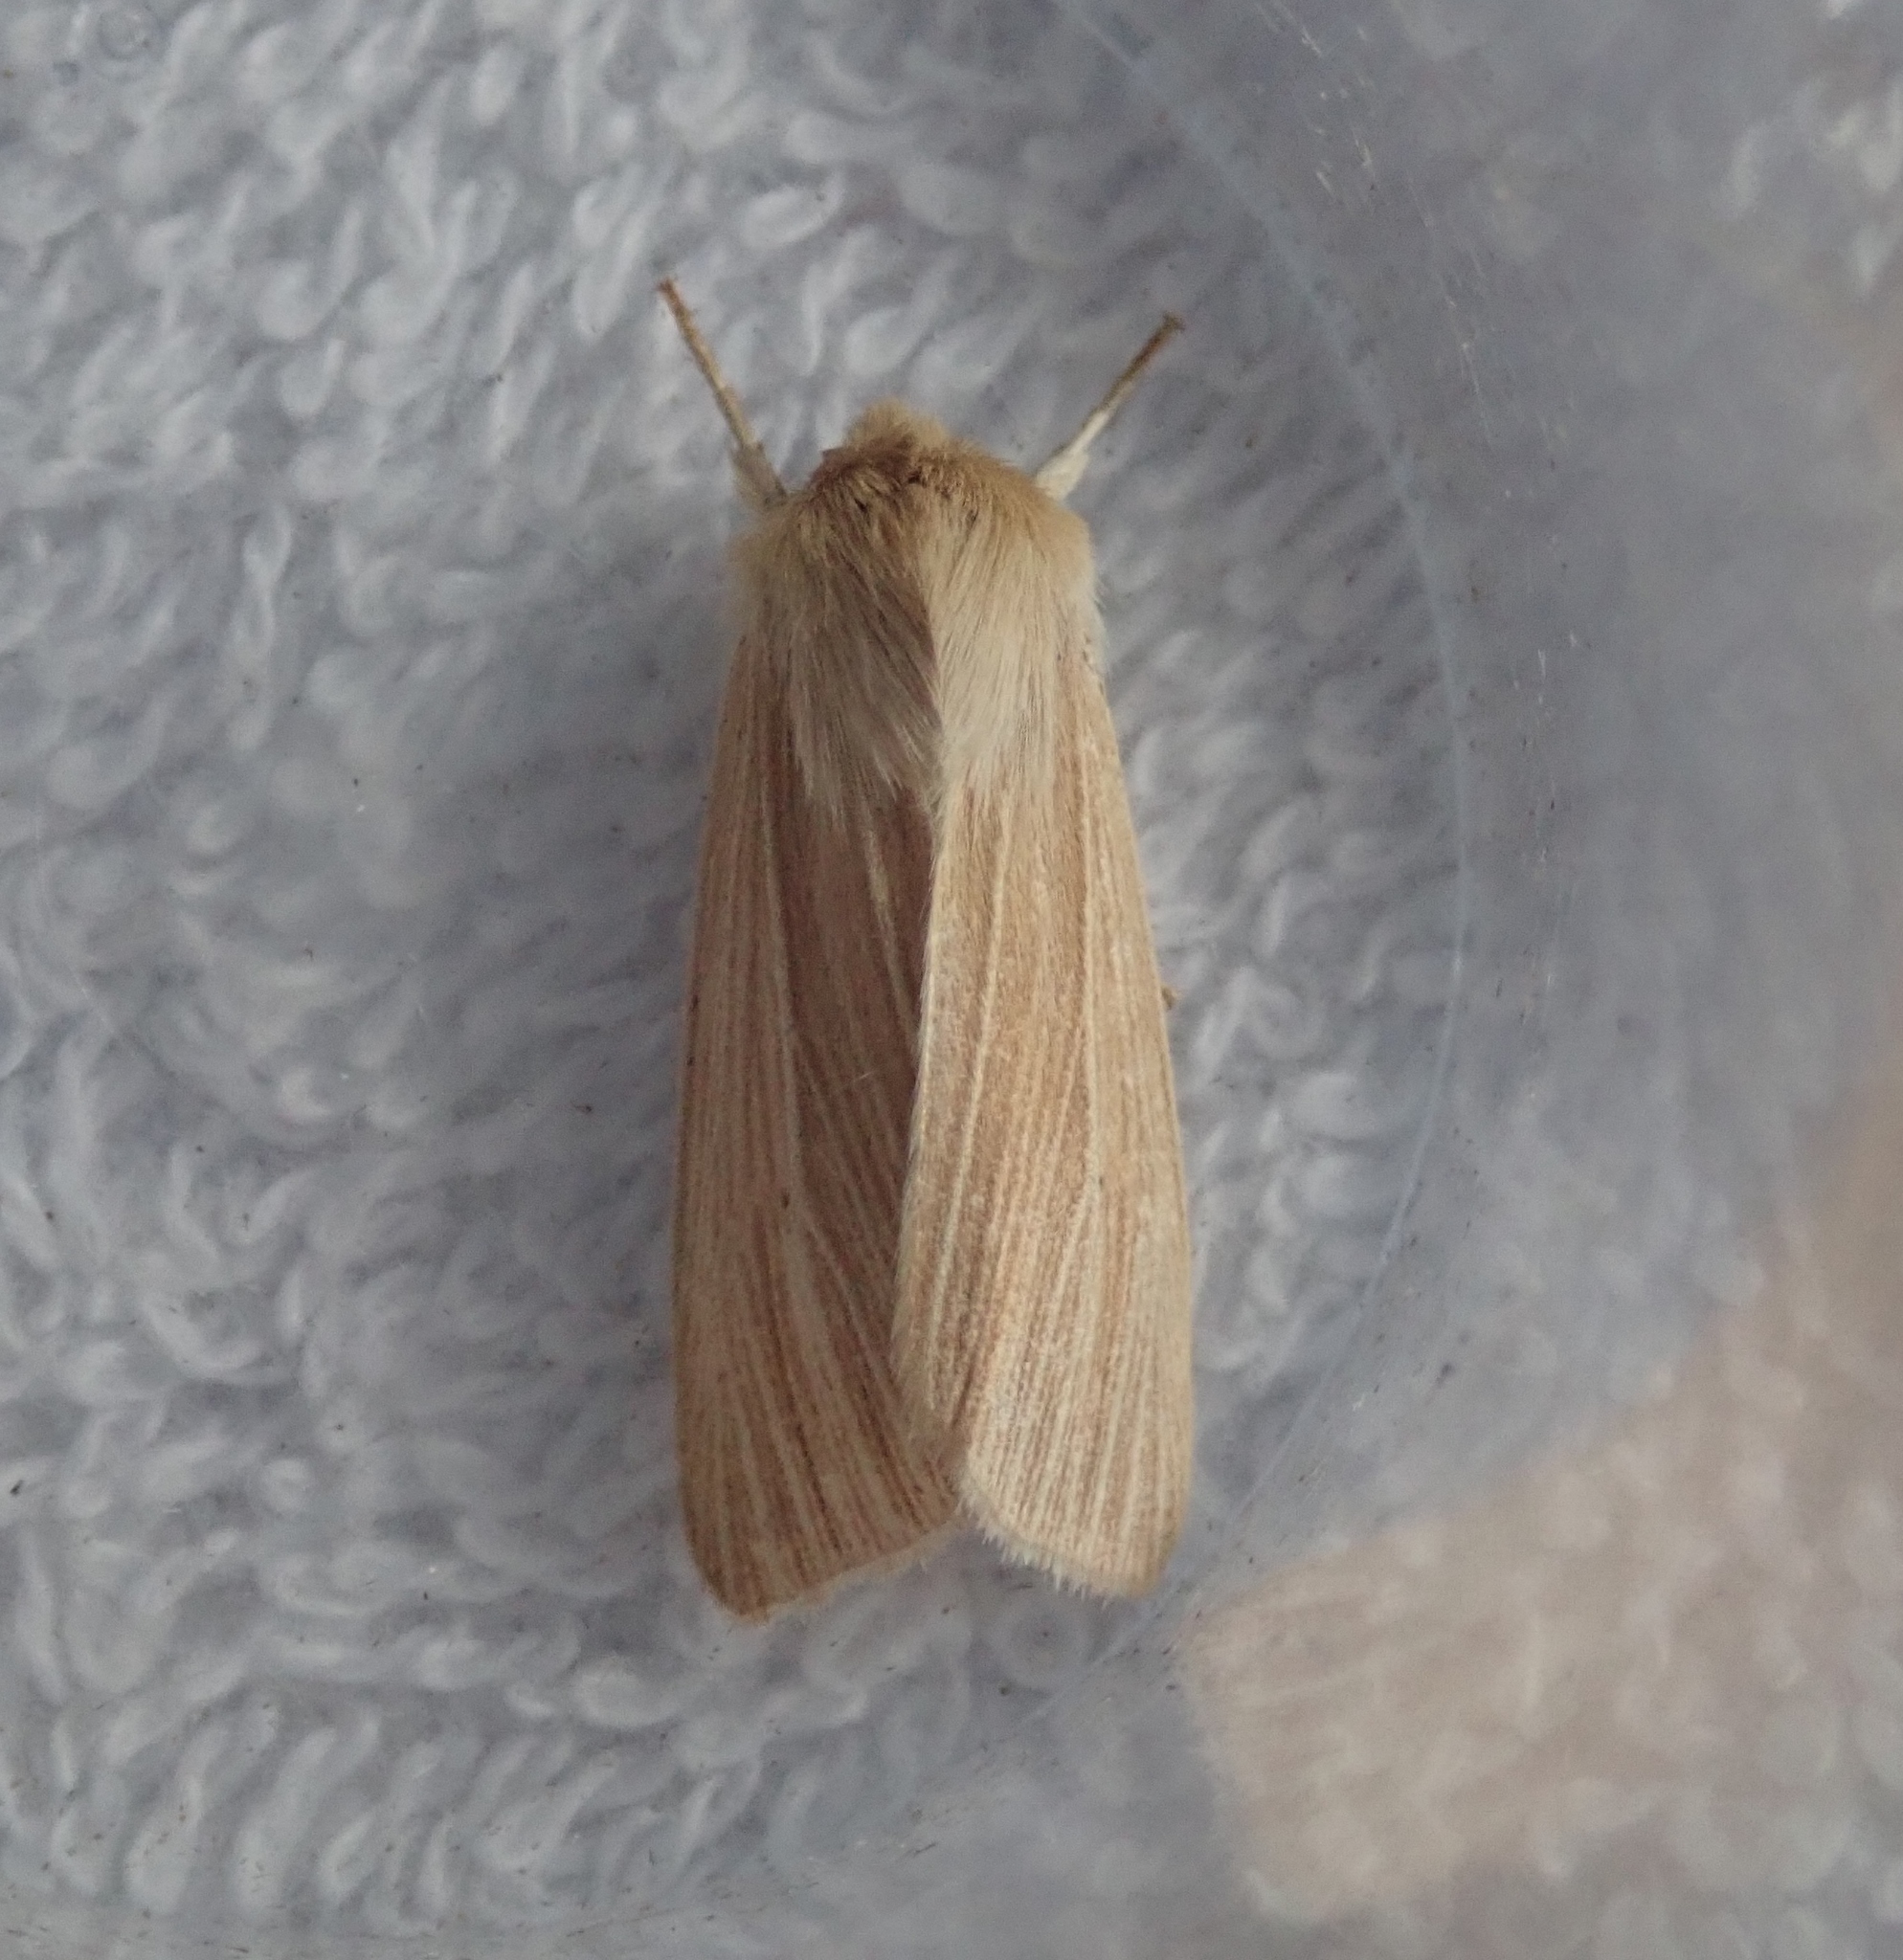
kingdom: Animalia
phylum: Arthropoda
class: Insecta
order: Lepidoptera
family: Noctuidae
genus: Mythimna
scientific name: Mythimna pallens
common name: Common wainscot
